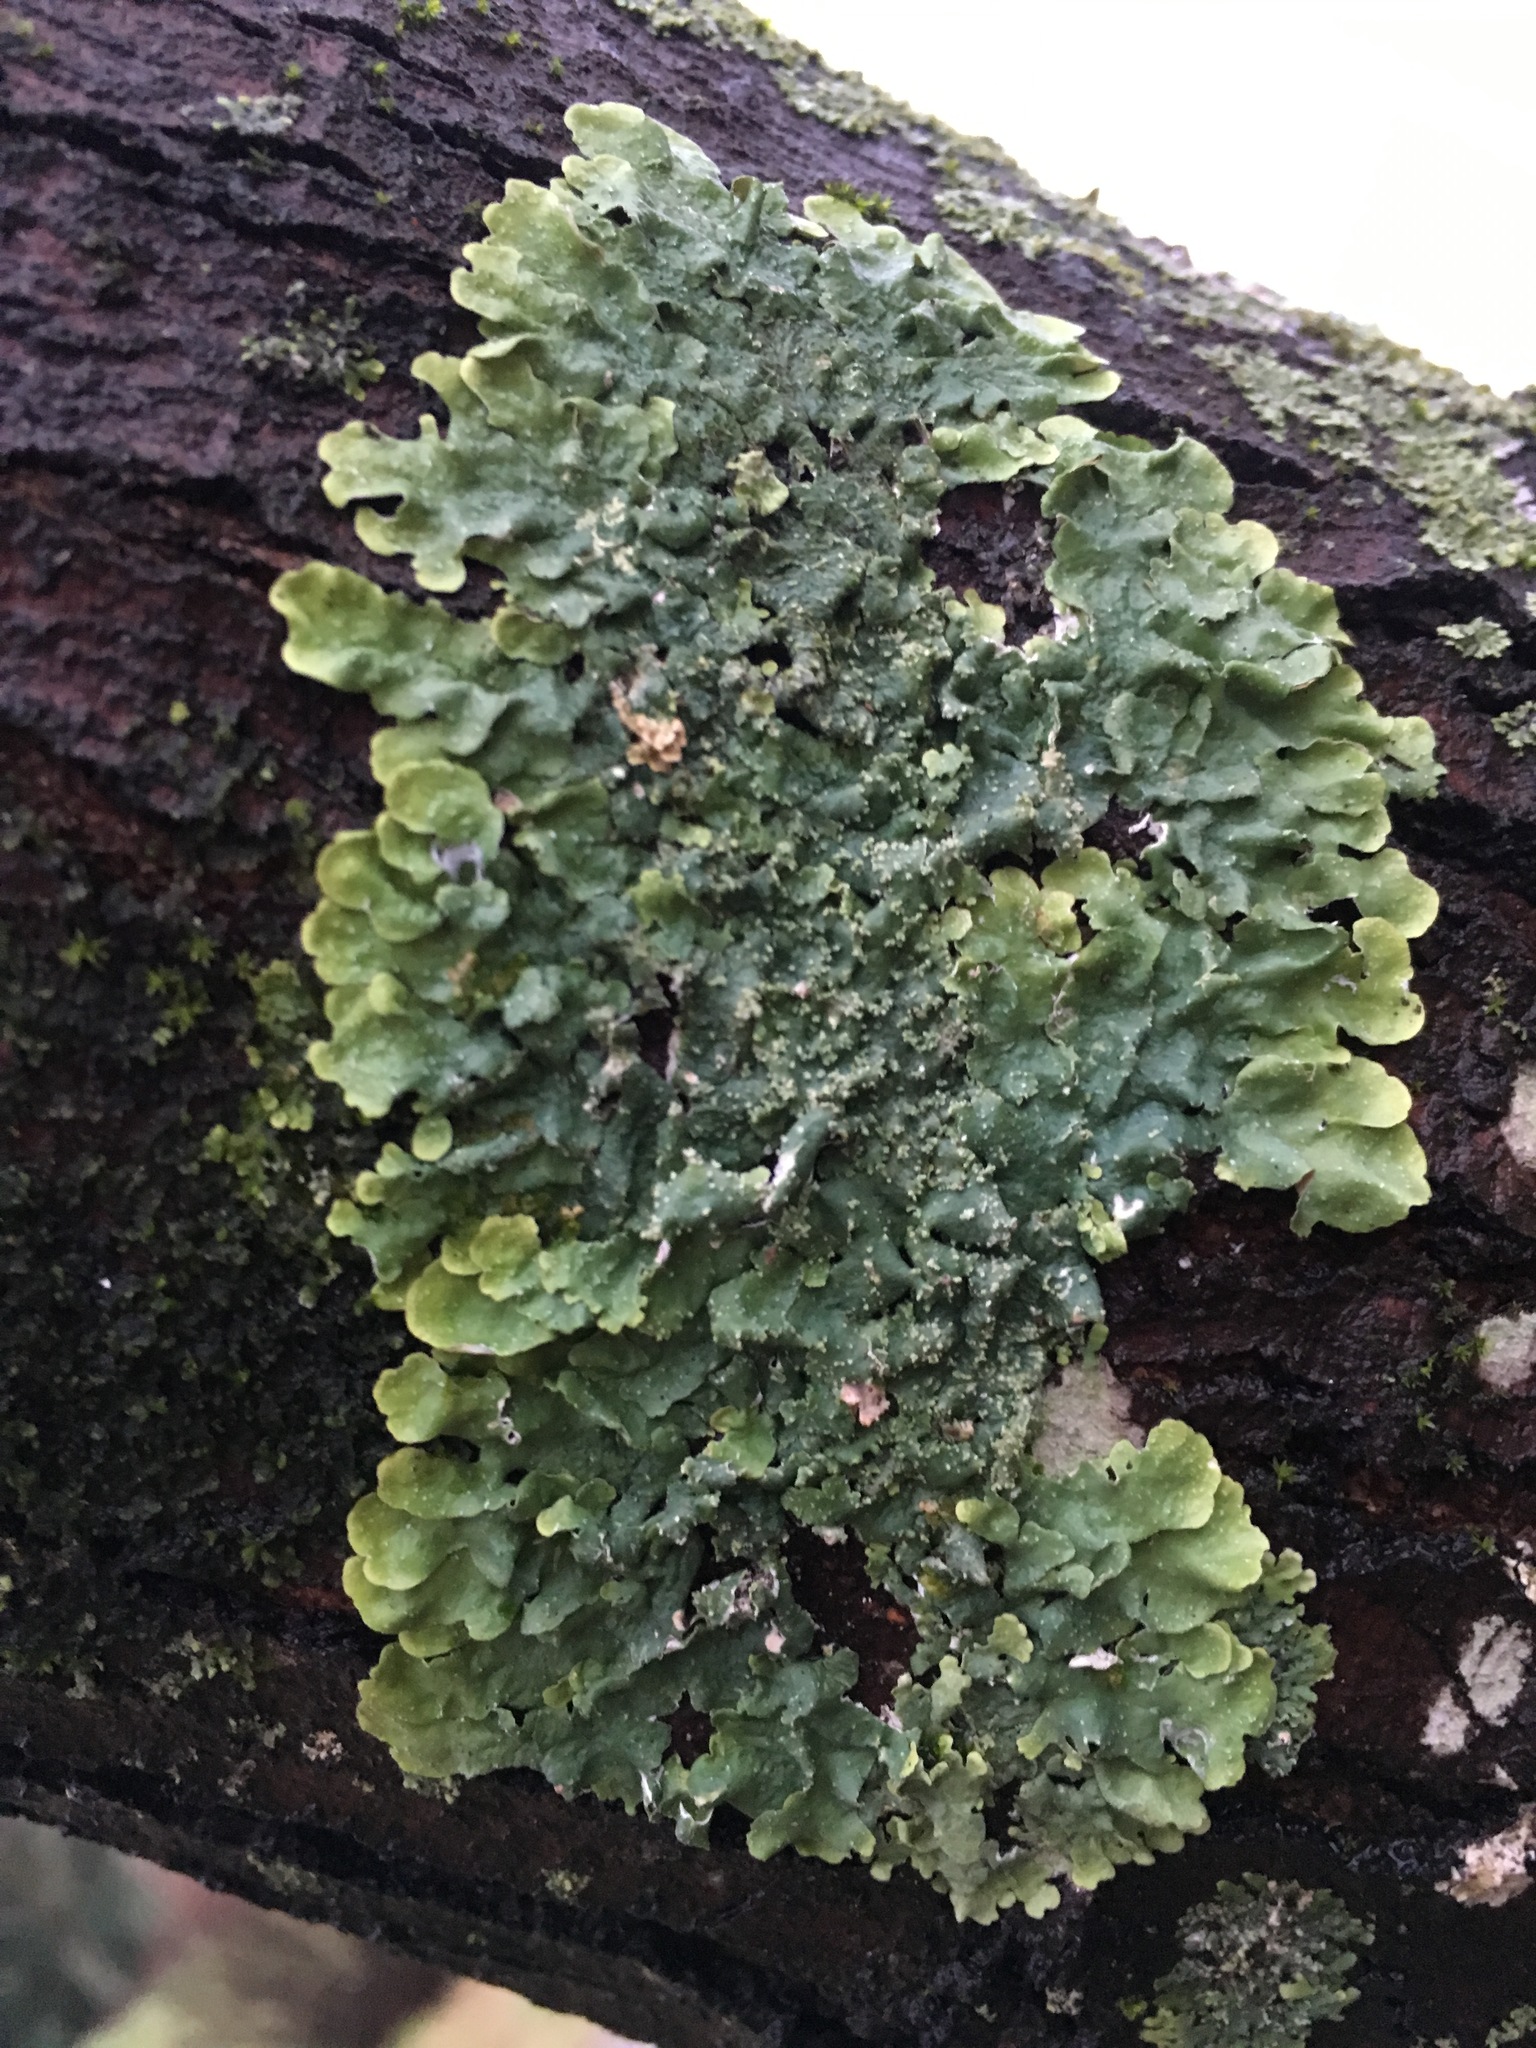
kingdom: Fungi
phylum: Ascomycota
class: Lecanoromycetes
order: Lecanorales
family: Parmeliaceae
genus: Punctelia
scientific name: Punctelia missouriensis
